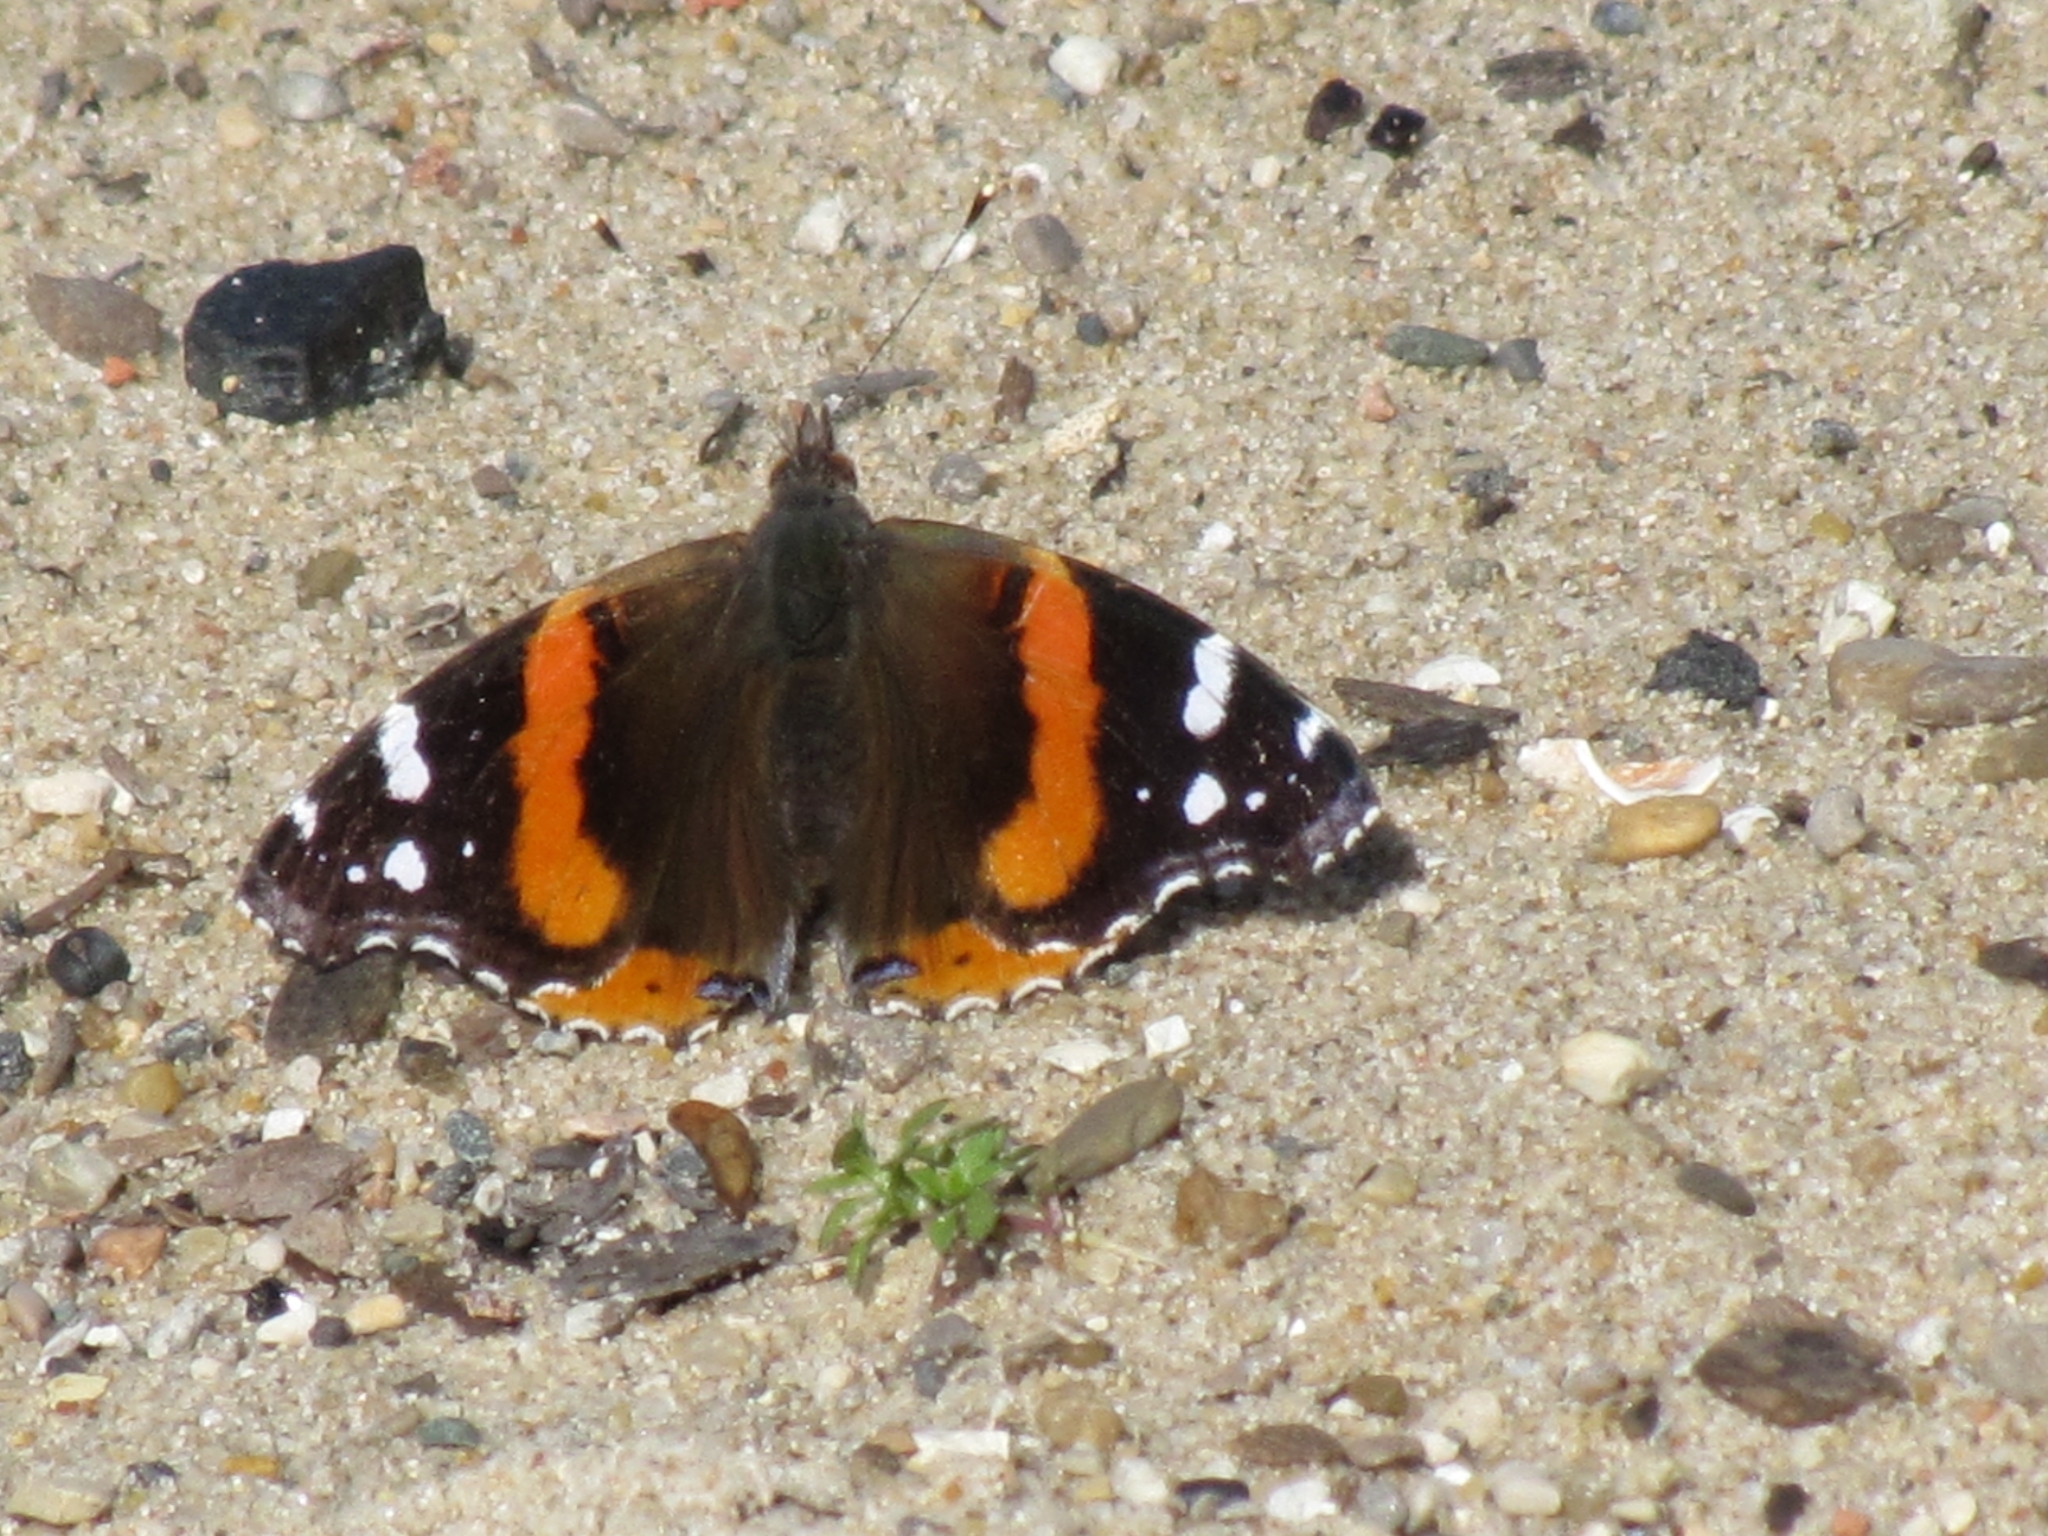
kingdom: Animalia
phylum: Arthropoda
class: Insecta
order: Lepidoptera
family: Nymphalidae
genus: Vanessa
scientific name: Vanessa atalanta
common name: Red admiral
